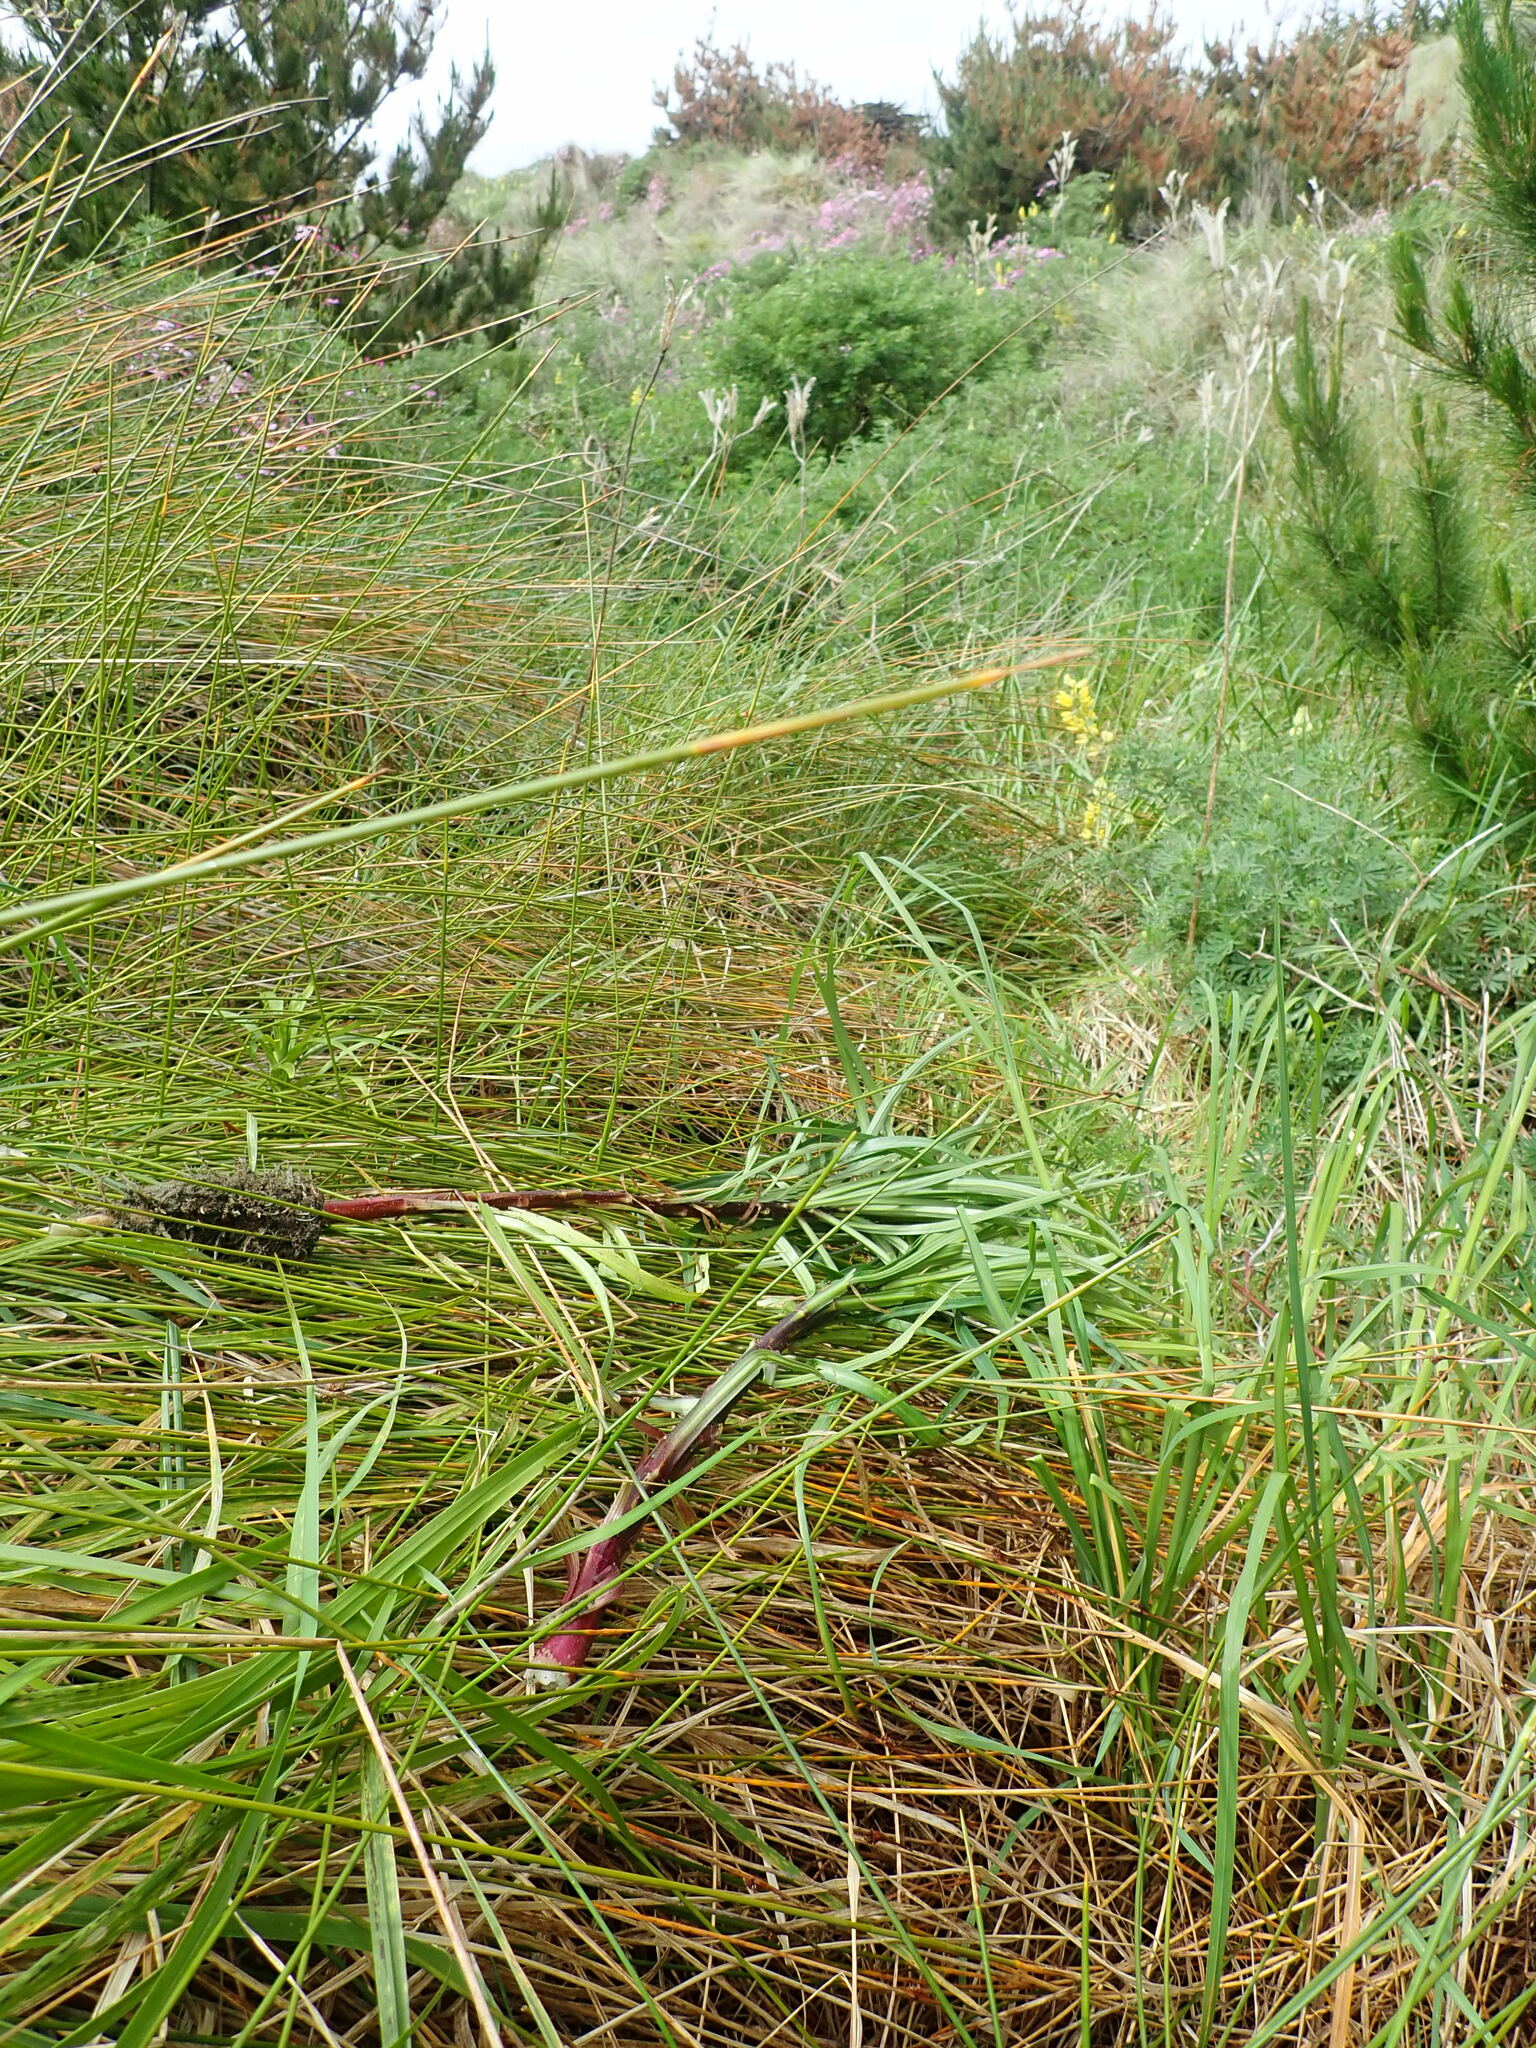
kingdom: Plantae
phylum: Tracheophyta
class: Liliopsida
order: Liliales
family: Liliaceae
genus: Lilium
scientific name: Lilium formosanum
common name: Formosa lily
